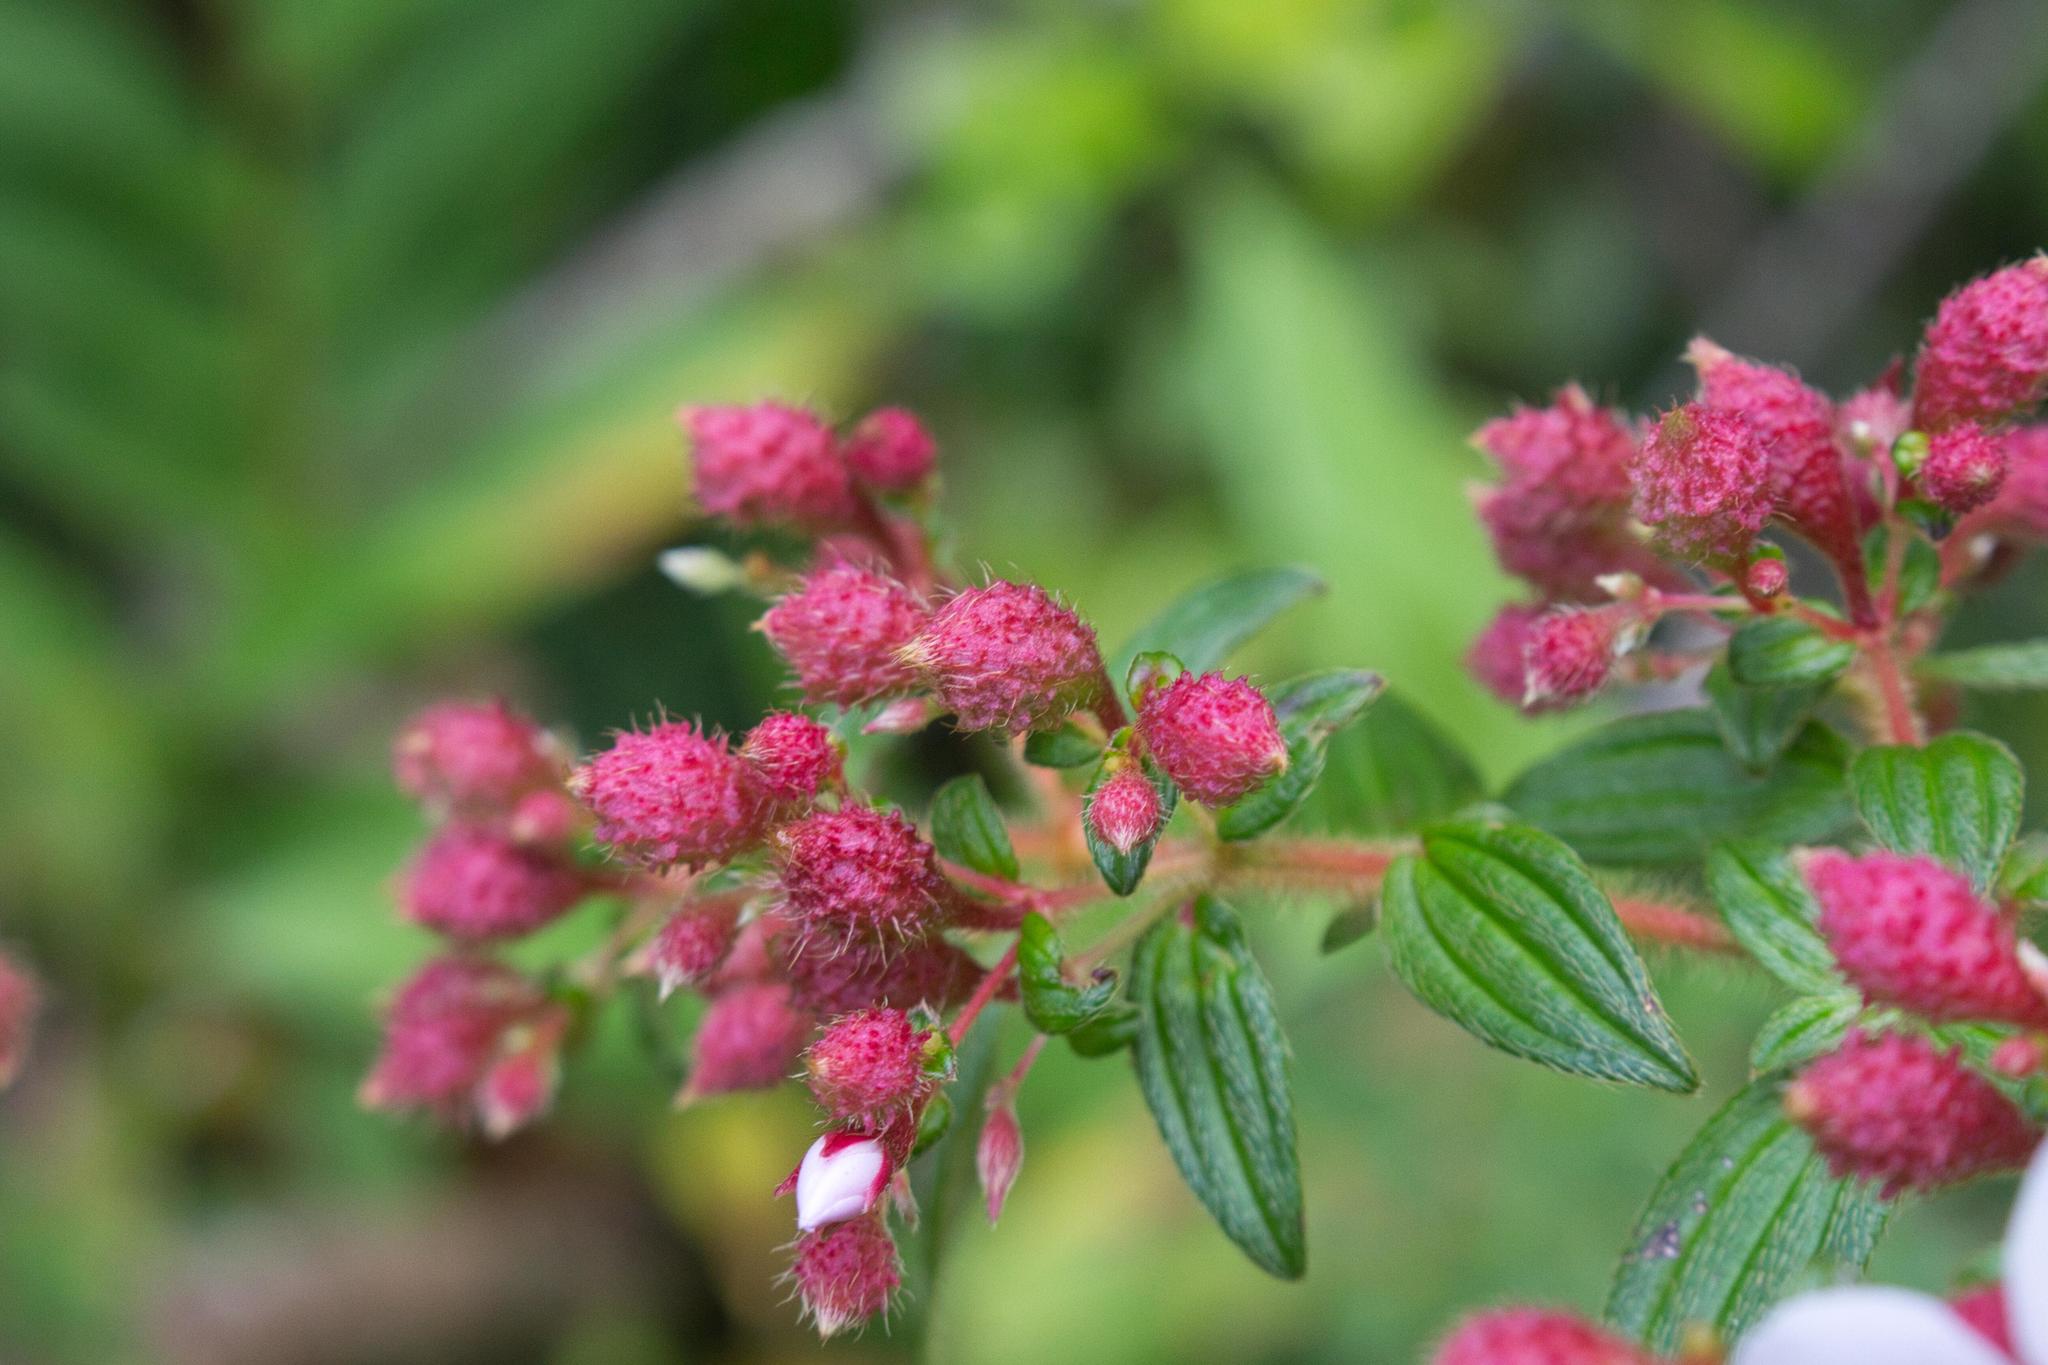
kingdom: Plantae
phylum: Tracheophyta
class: Magnoliopsida
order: Myrtales
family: Melastomataceae
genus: Monochaetum
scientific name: Monochaetum floribundum
